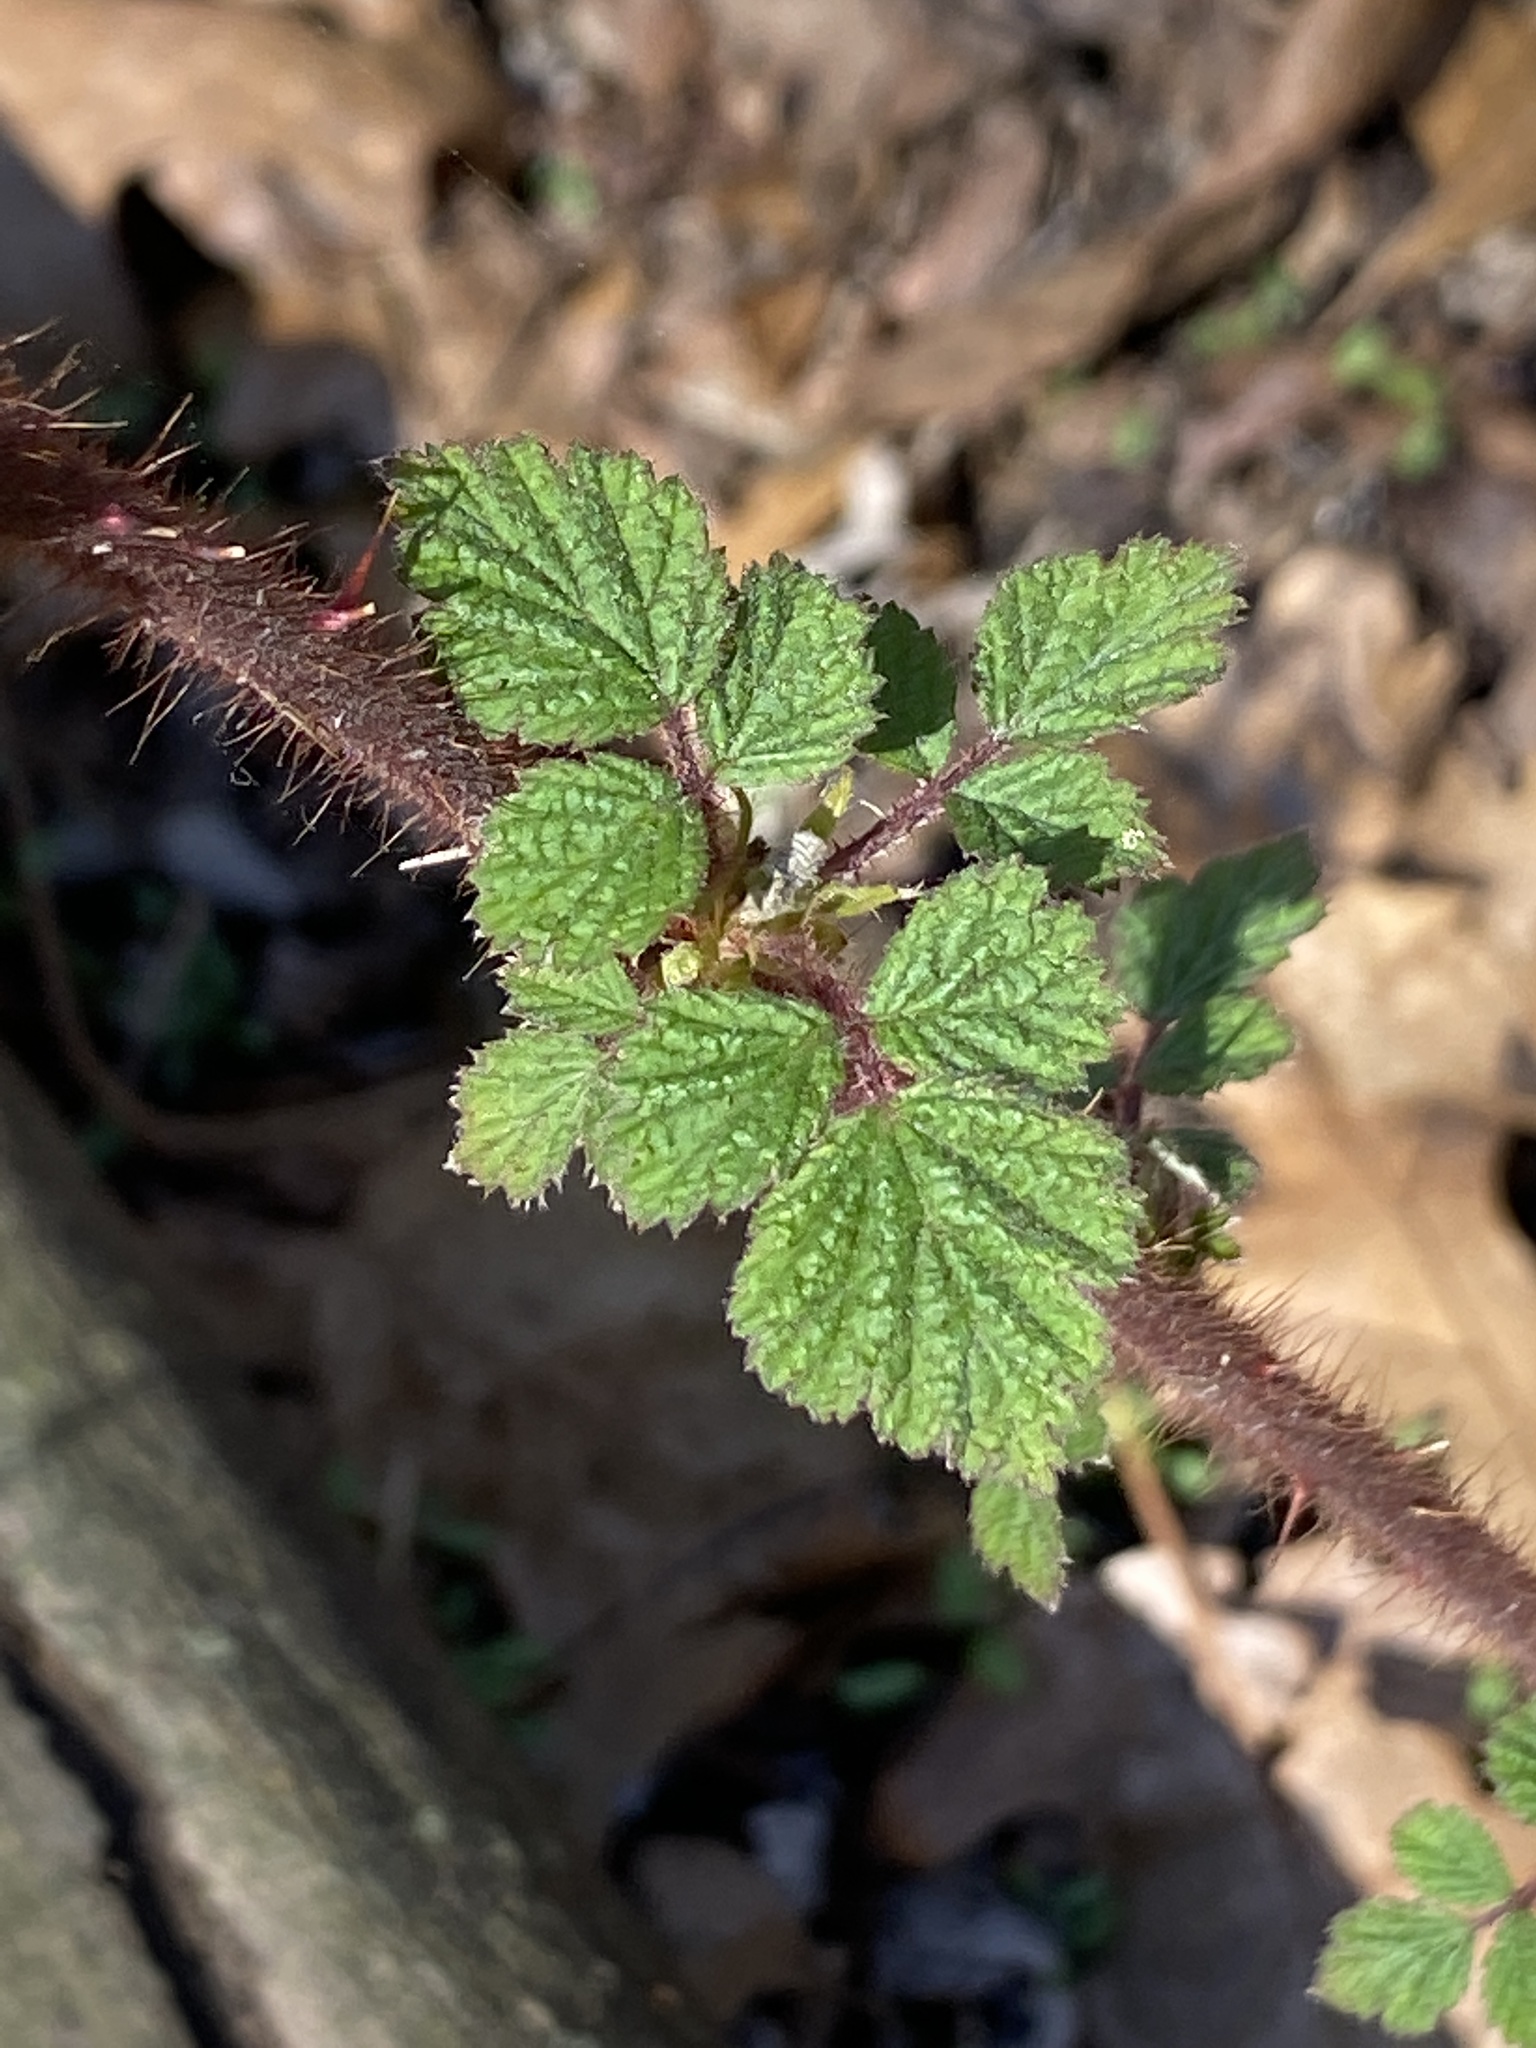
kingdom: Plantae
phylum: Tracheophyta
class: Magnoliopsida
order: Rosales
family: Rosaceae
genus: Rubus
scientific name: Rubus phoenicolasius
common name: Japanese wineberry
